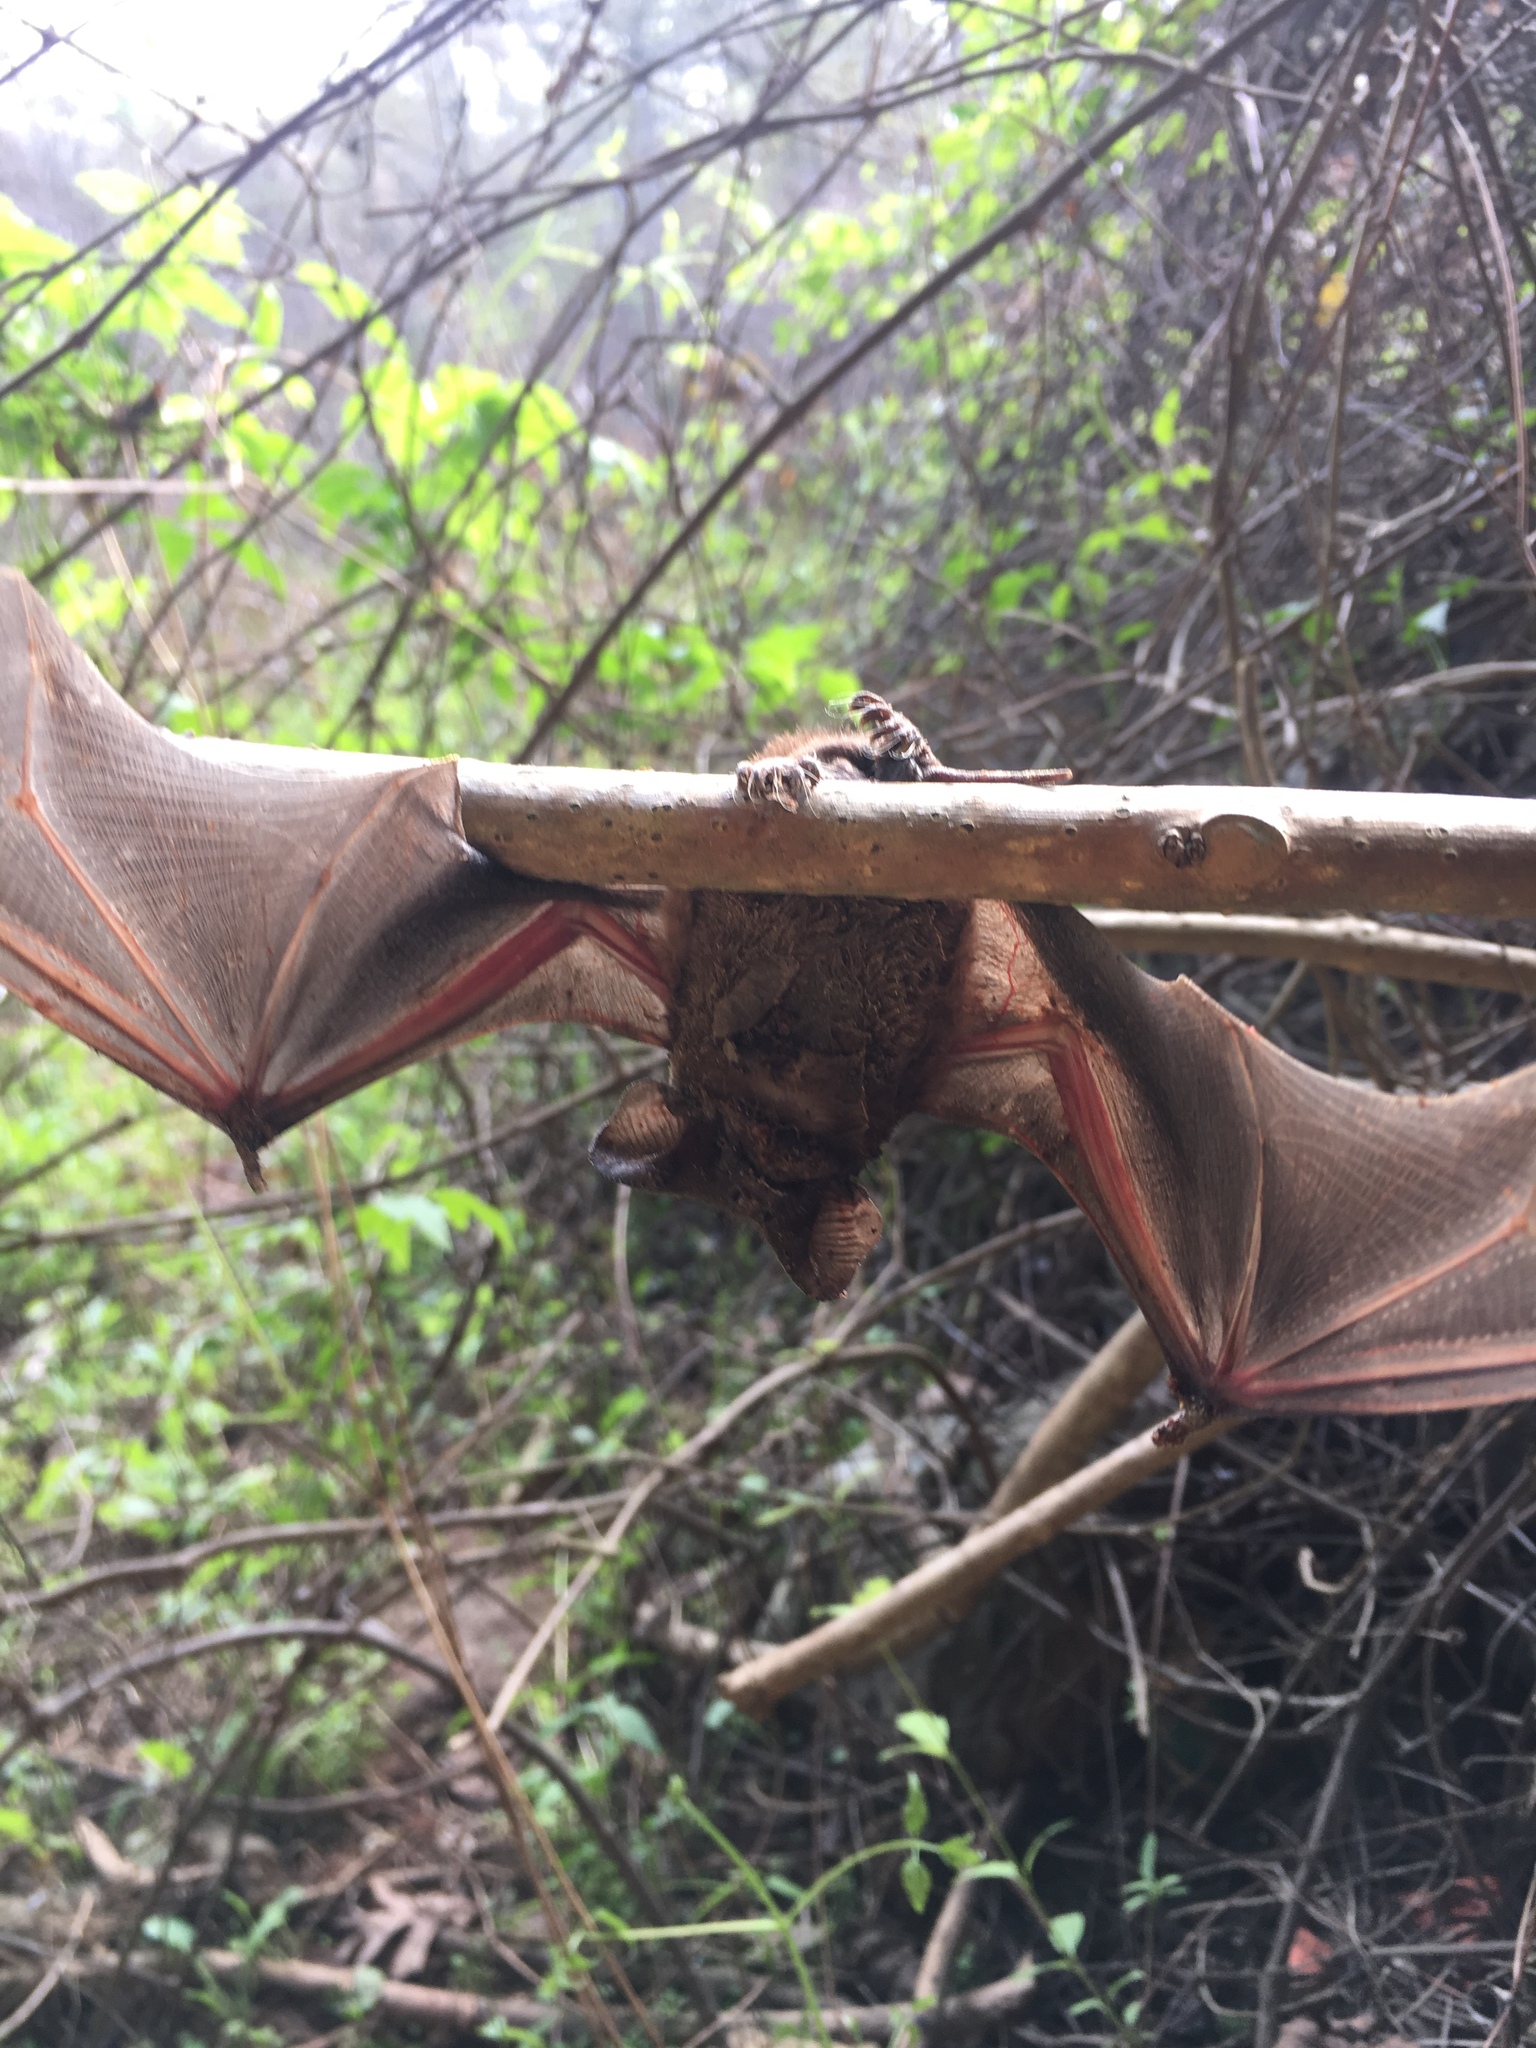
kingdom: Animalia
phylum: Chordata
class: Mammalia
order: Chiroptera
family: Molossidae
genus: Tadarida
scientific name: Tadarida brasiliensis
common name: Mexican free-tailed bat
